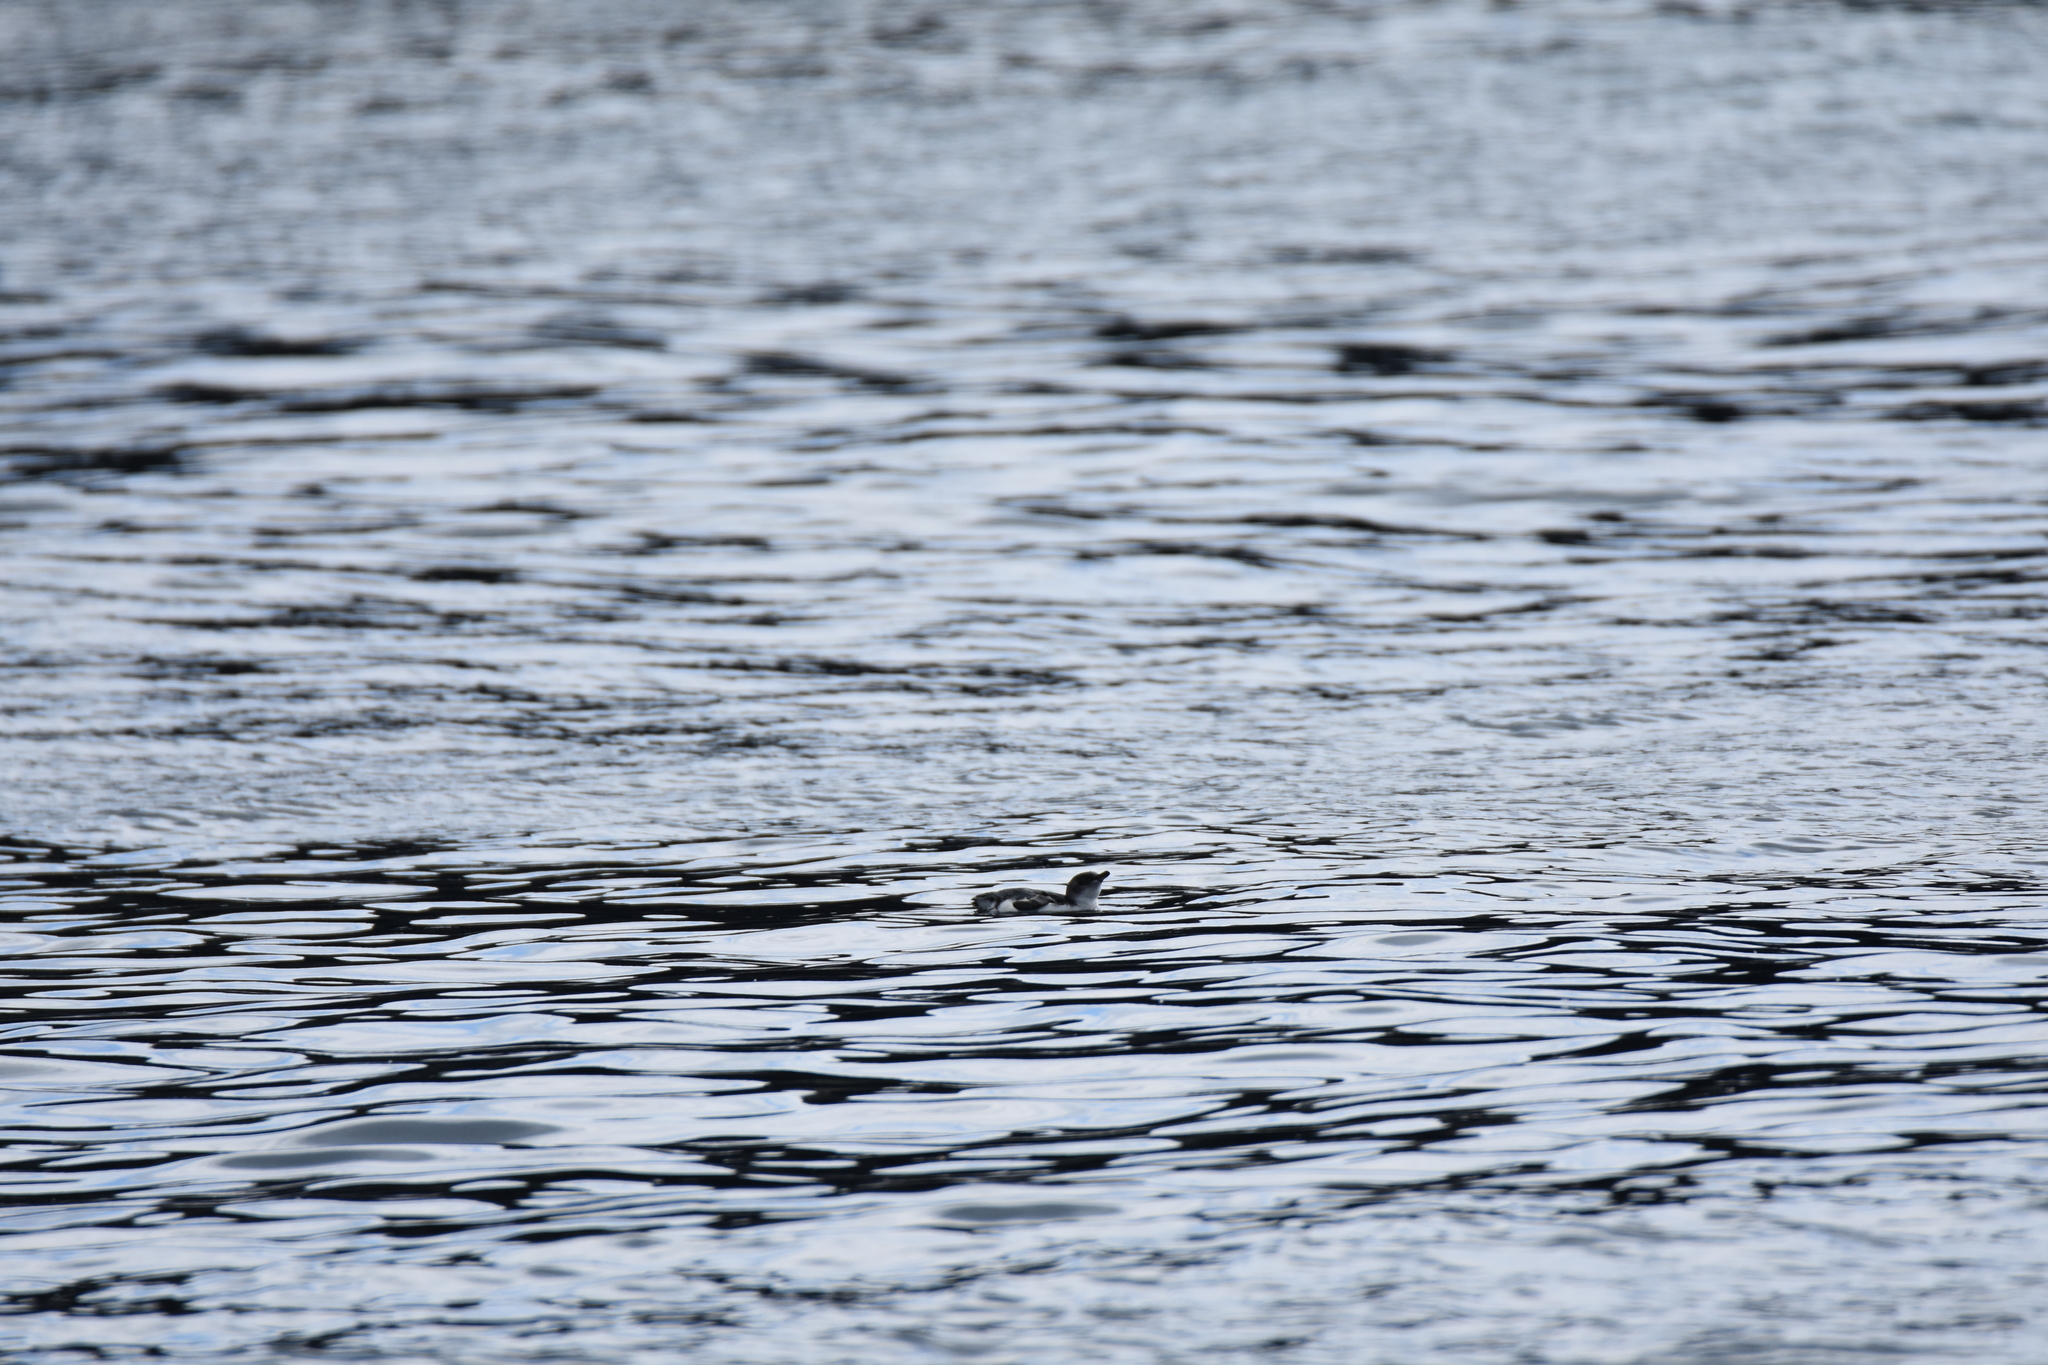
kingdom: Animalia
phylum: Chordata
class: Aves
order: Sphenisciformes
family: Spheniscidae
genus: Eudyptula
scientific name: Eudyptula minor
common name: Little penguin
